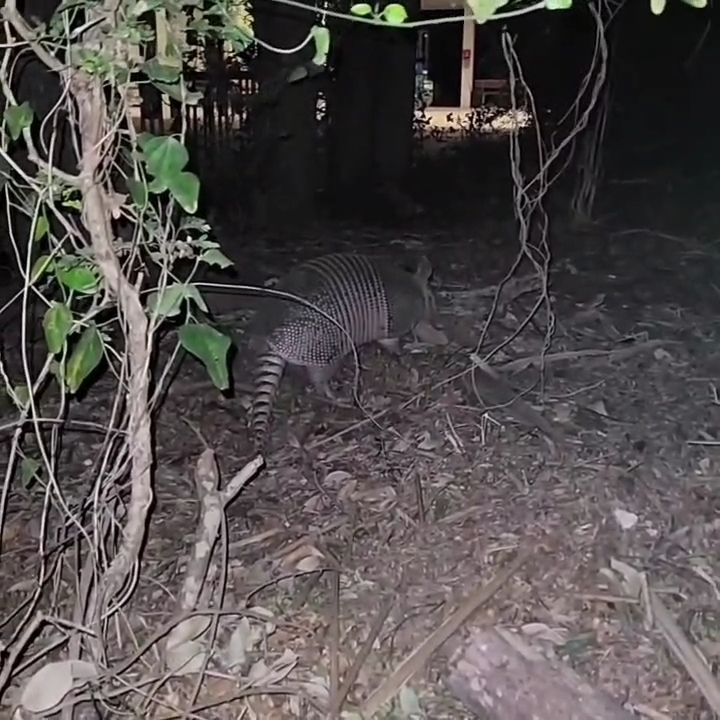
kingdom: Animalia
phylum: Chordata
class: Mammalia
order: Cingulata
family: Dasypodidae
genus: Dasypus
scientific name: Dasypus novemcinctus
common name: Nine-banded armadillo
